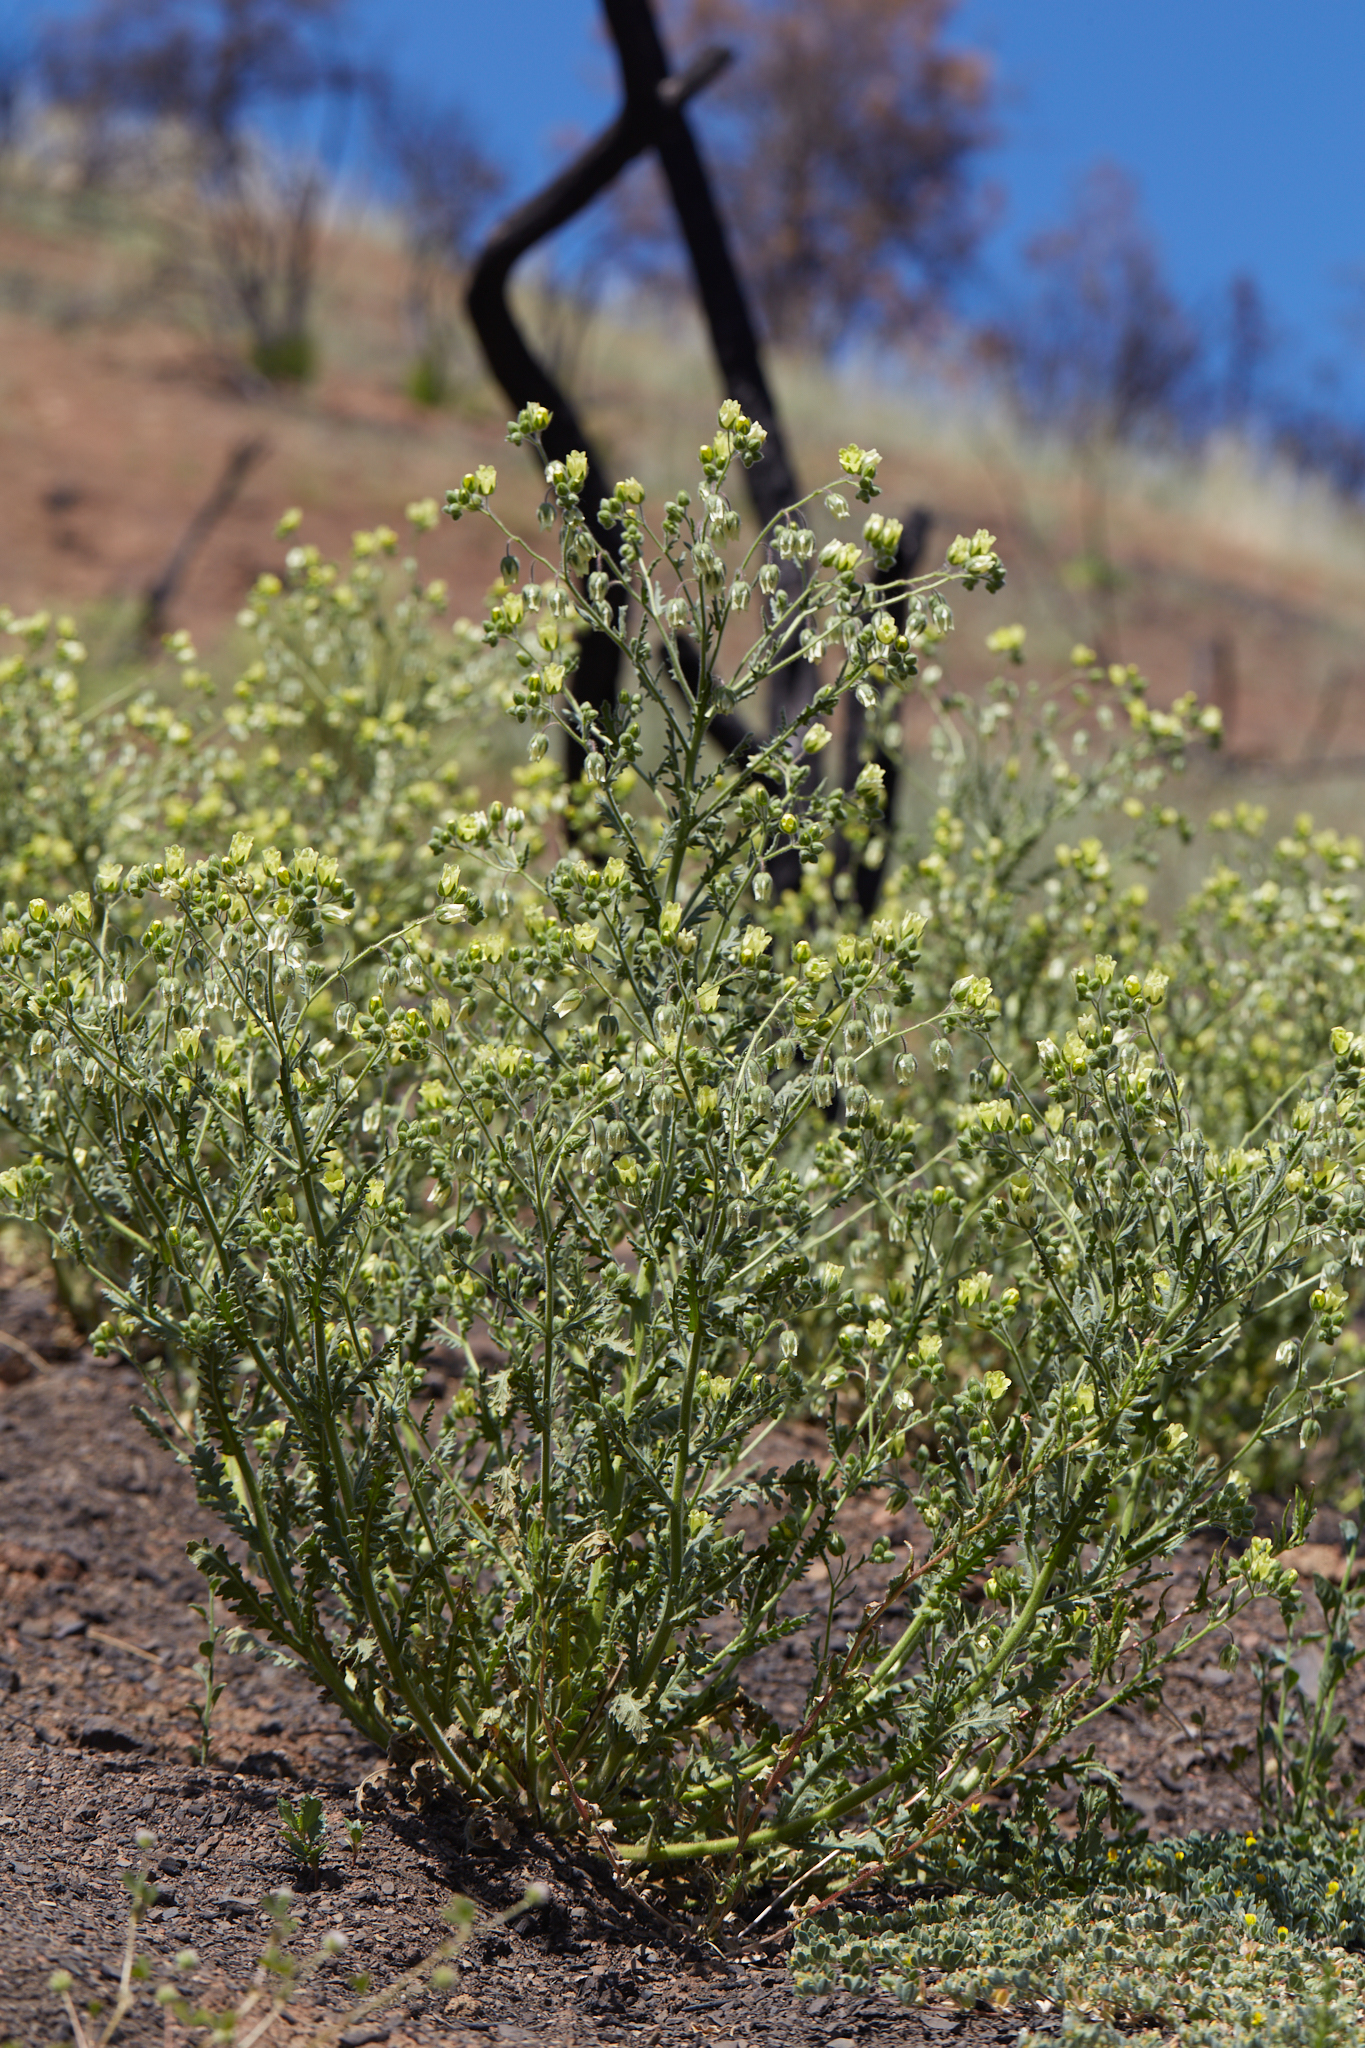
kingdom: Plantae
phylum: Tracheophyta
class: Magnoliopsida
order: Boraginales
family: Hydrophyllaceae
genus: Emmenanthe
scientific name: Emmenanthe penduliflora
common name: Whispering-bells
